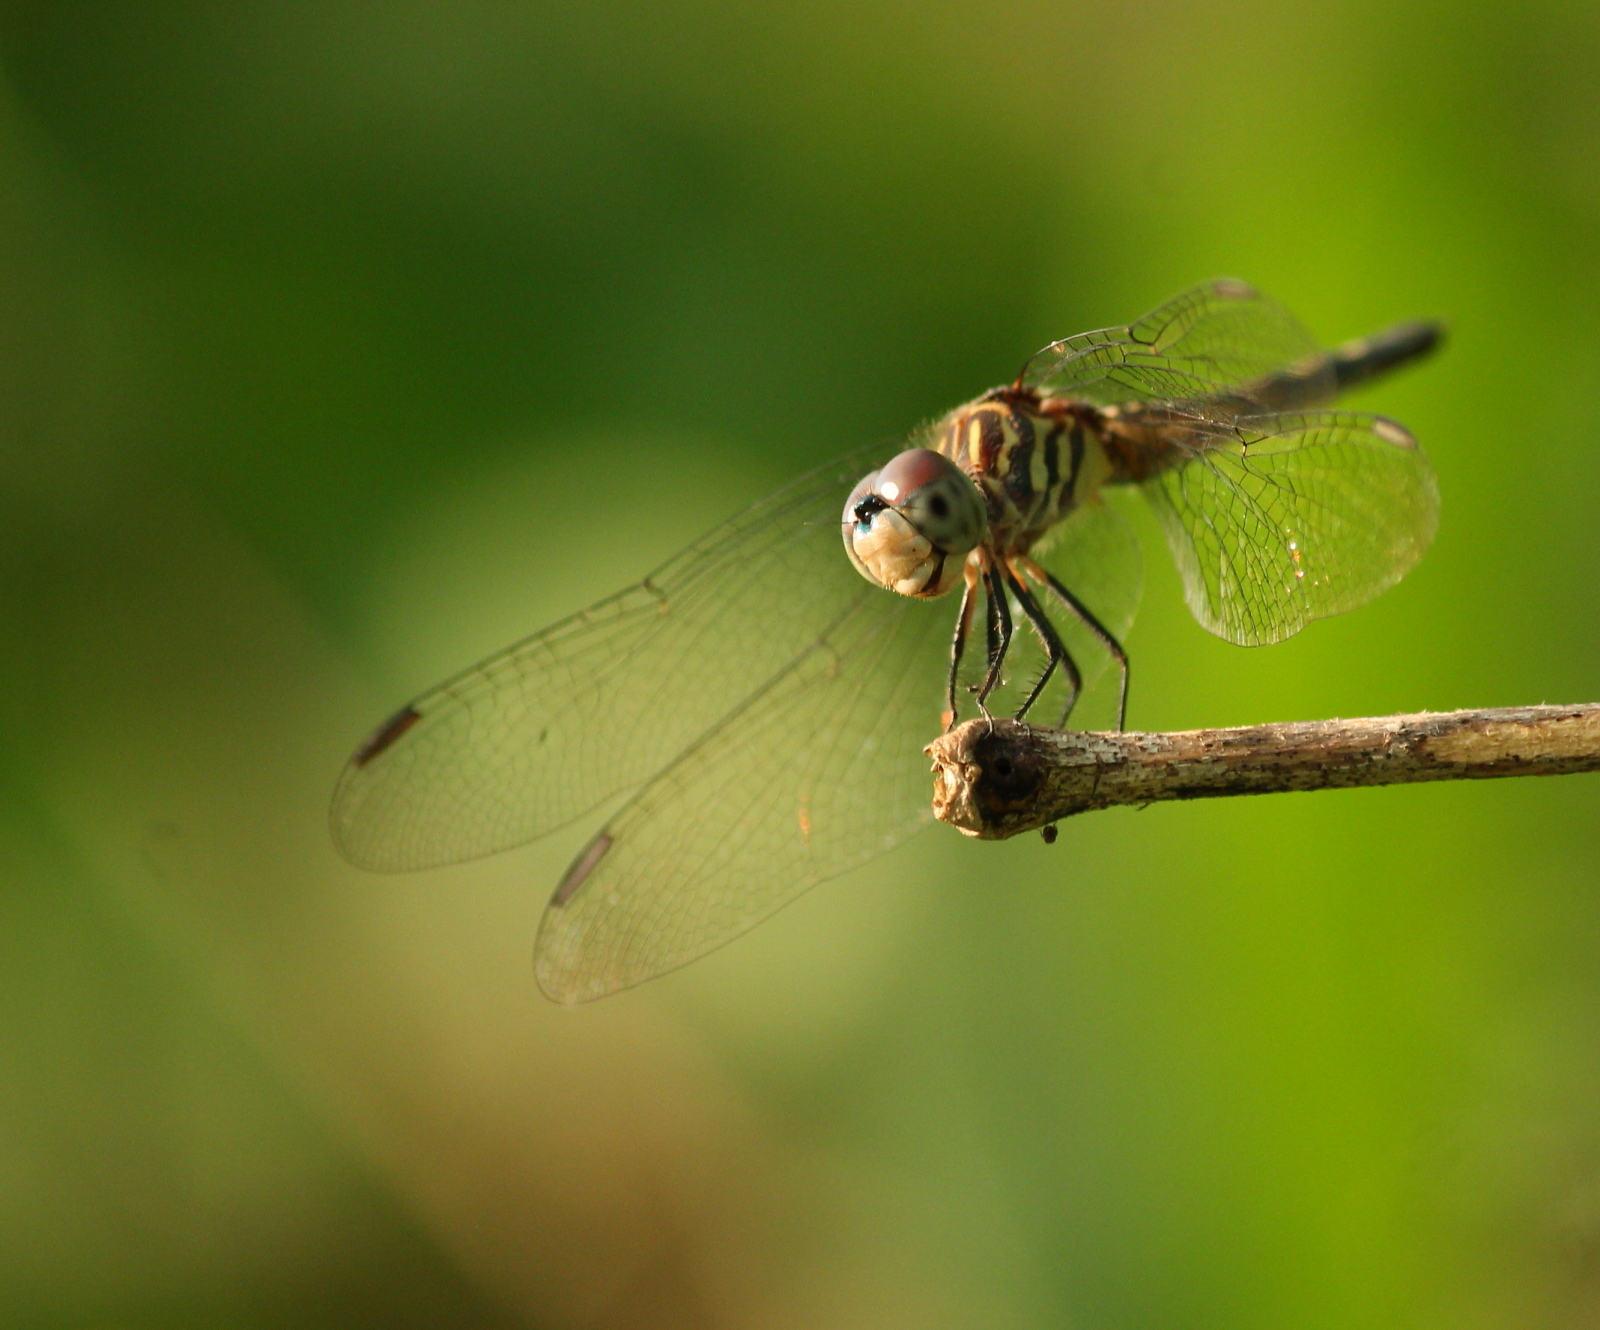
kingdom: Animalia
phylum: Arthropoda
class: Insecta
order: Odonata
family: Libellulidae
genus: Pachydiplax
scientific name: Pachydiplax longipennis
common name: Blue dasher
